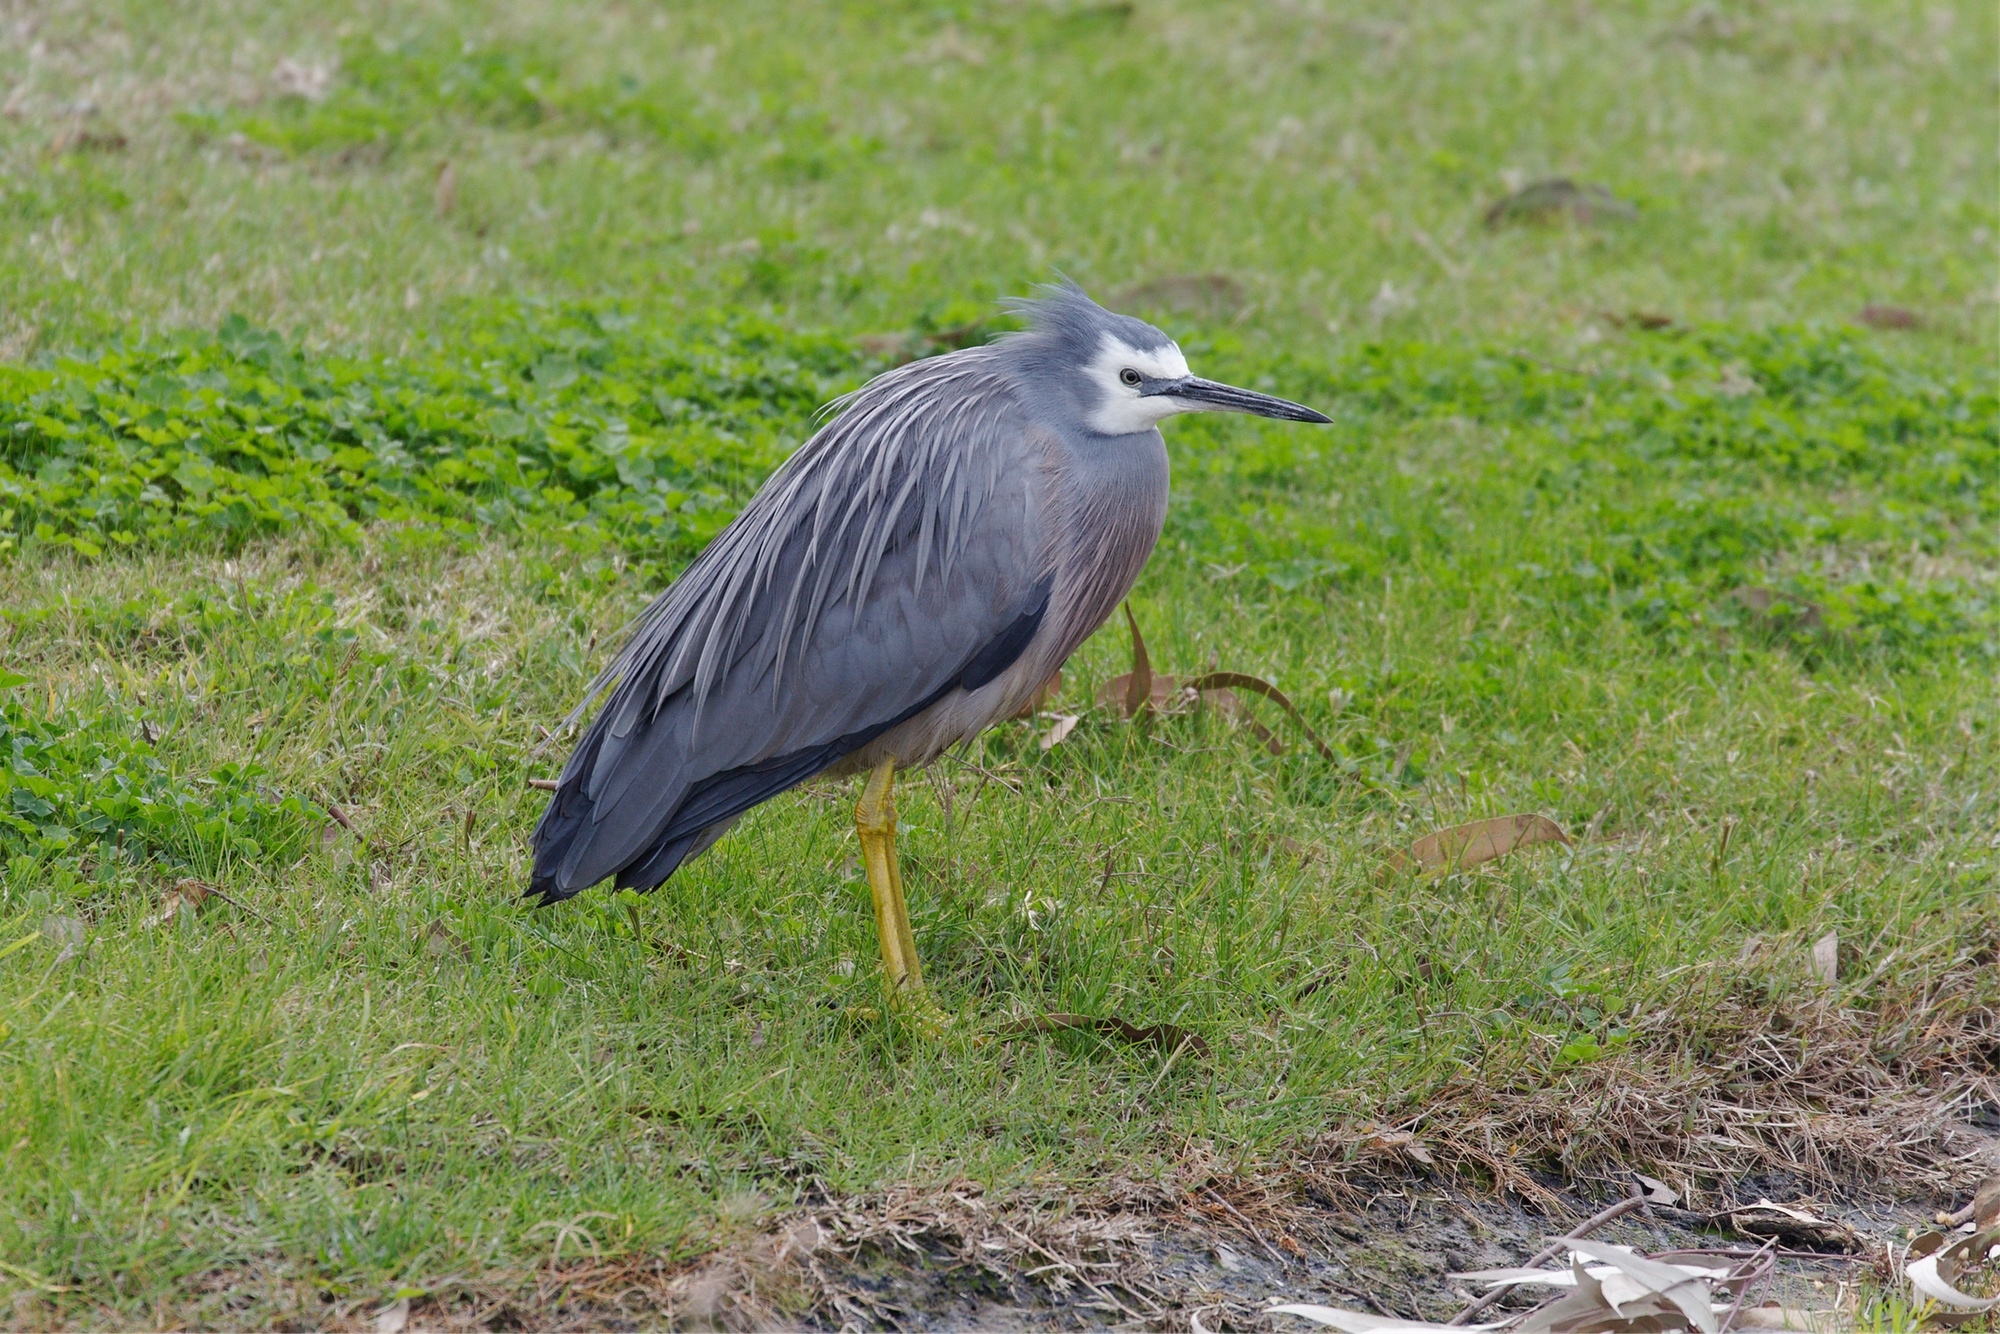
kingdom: Animalia
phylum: Chordata
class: Aves
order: Pelecaniformes
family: Ardeidae
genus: Egretta
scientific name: Egretta novaehollandiae
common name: White-faced heron
